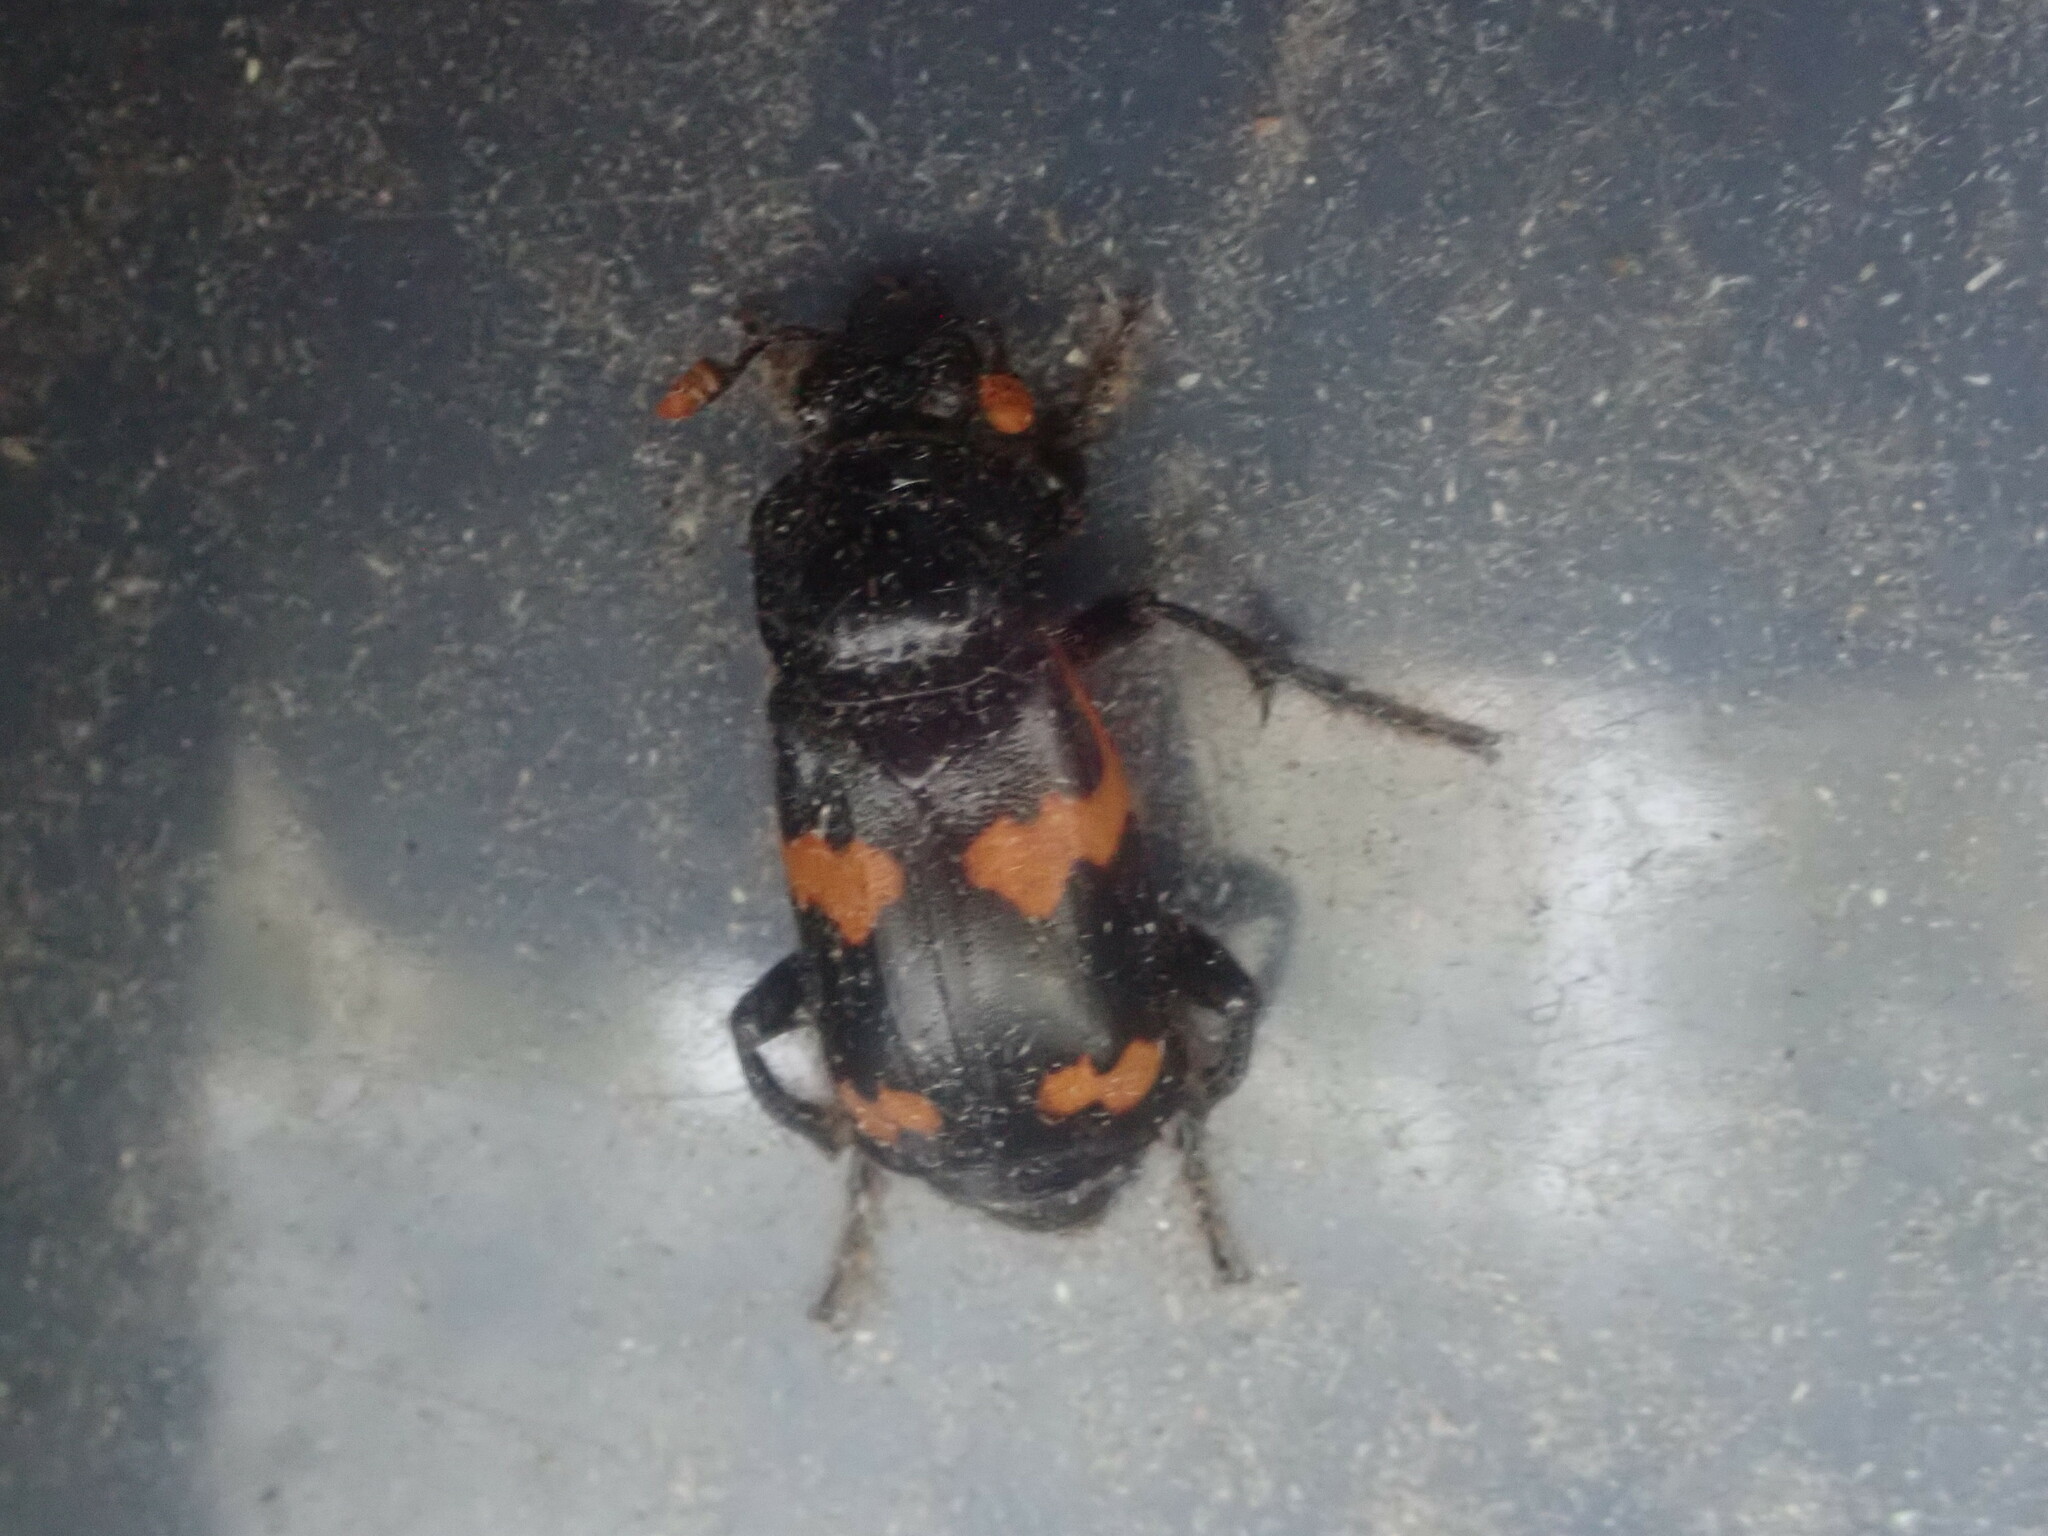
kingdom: Animalia
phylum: Arthropoda
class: Insecta
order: Coleoptera
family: Staphylinidae
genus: Nicrophorus
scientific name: Nicrophorus sayi
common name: Say's burying beetle
